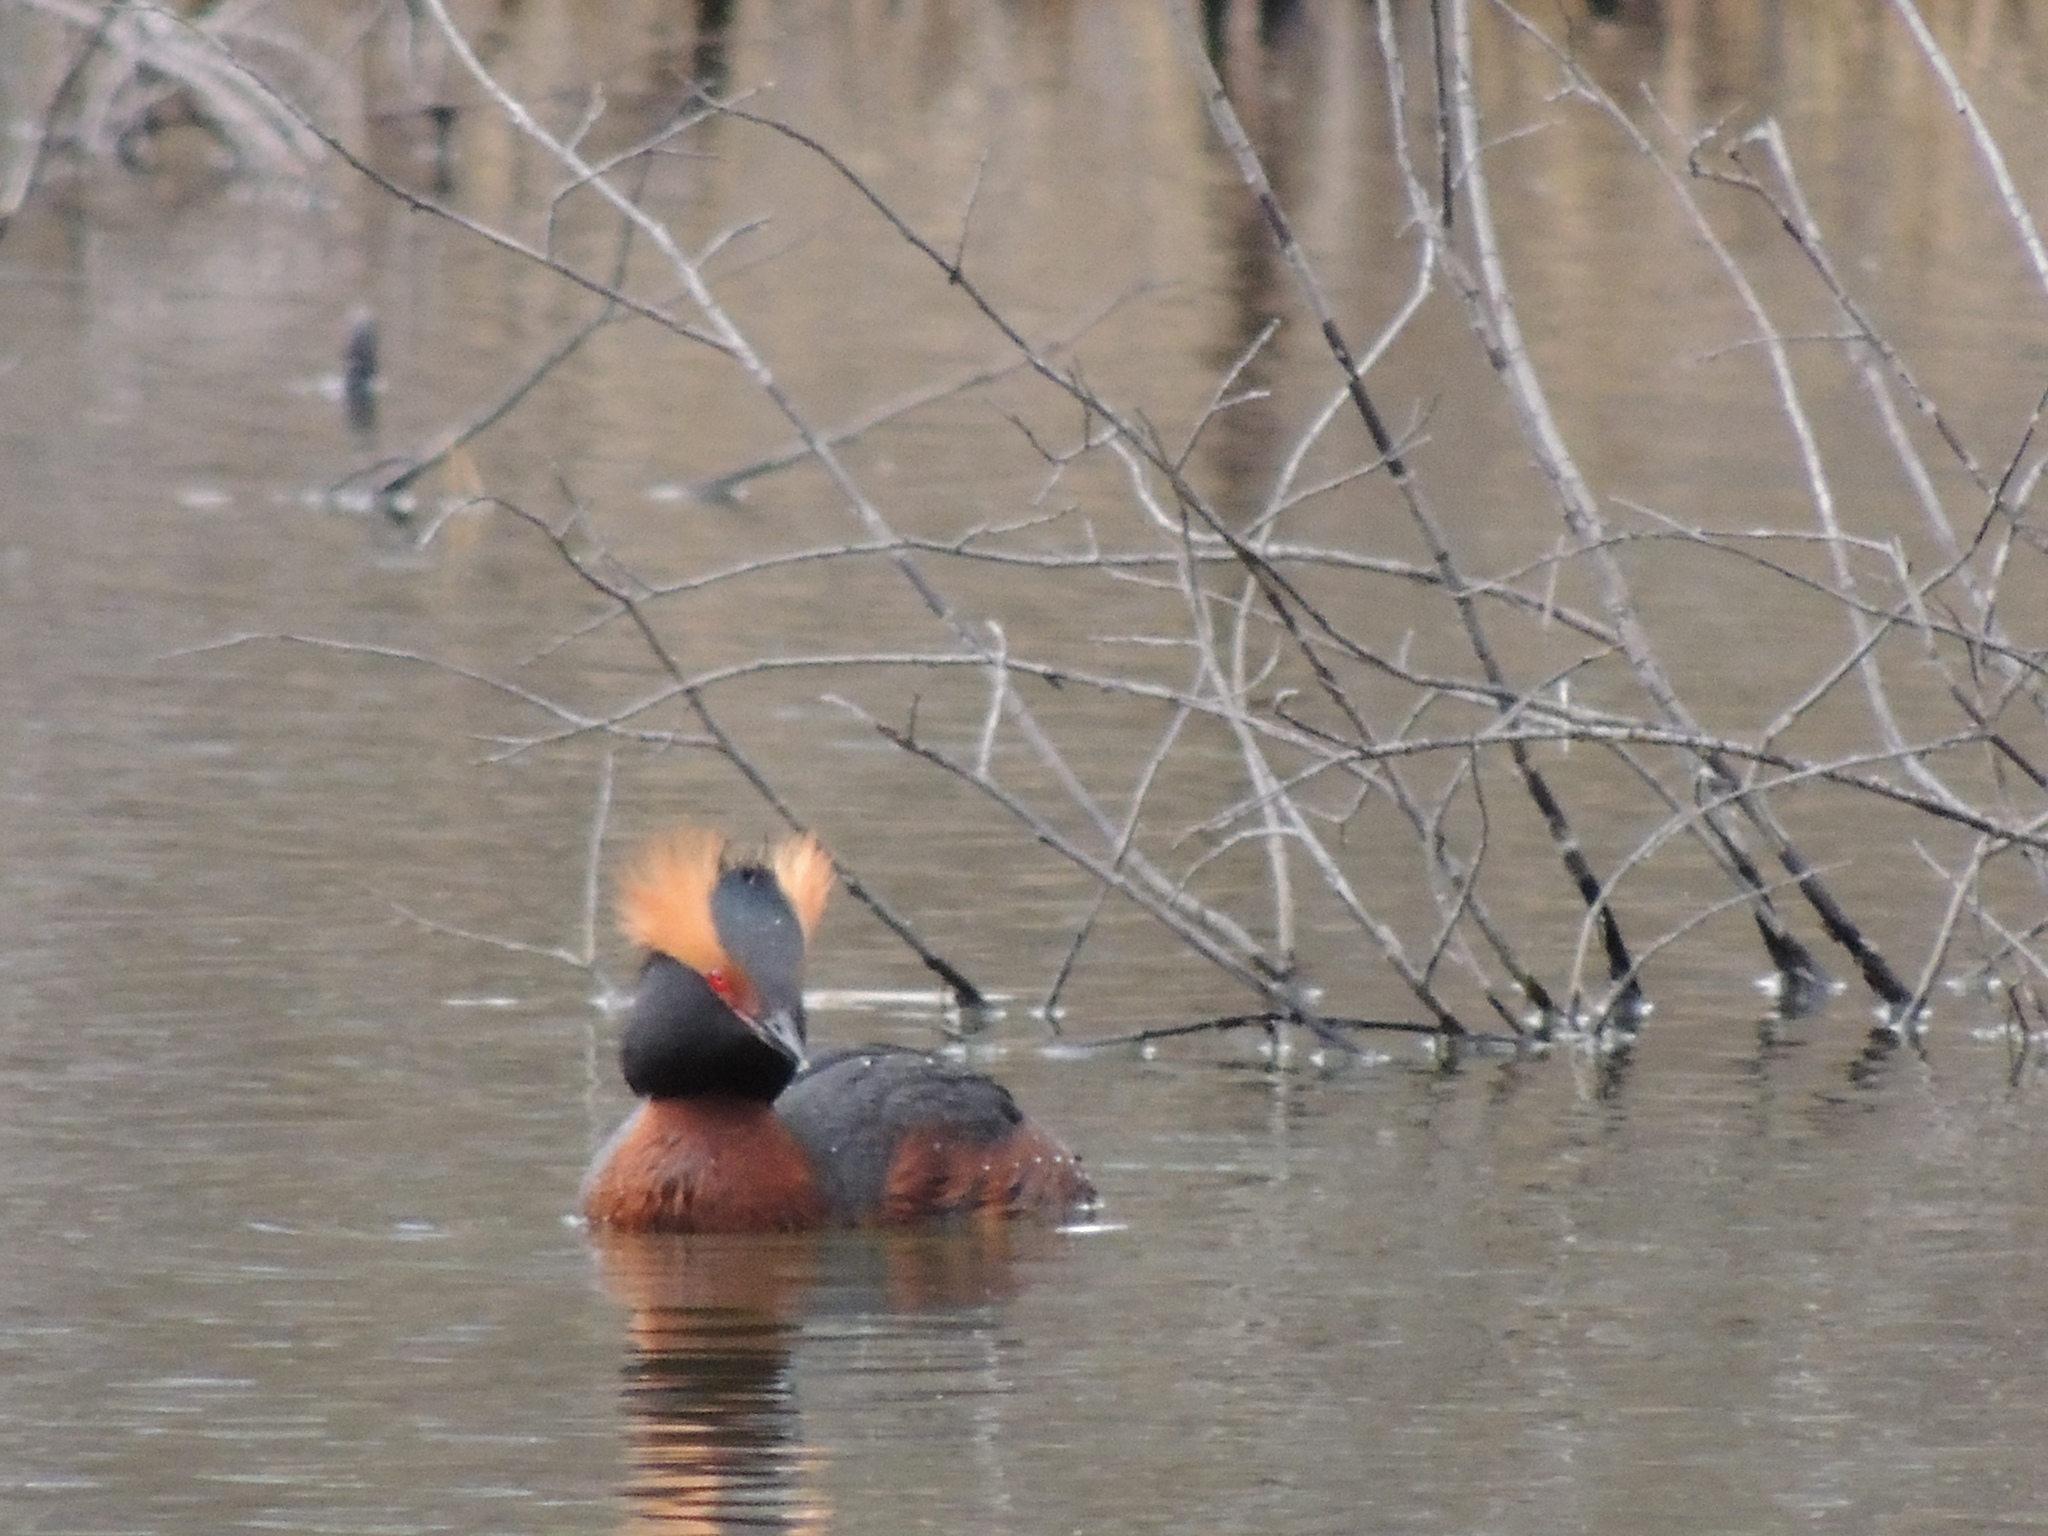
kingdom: Animalia
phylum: Chordata
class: Aves
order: Podicipediformes
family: Podicipedidae
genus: Podiceps
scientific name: Podiceps auritus
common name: Horned grebe
